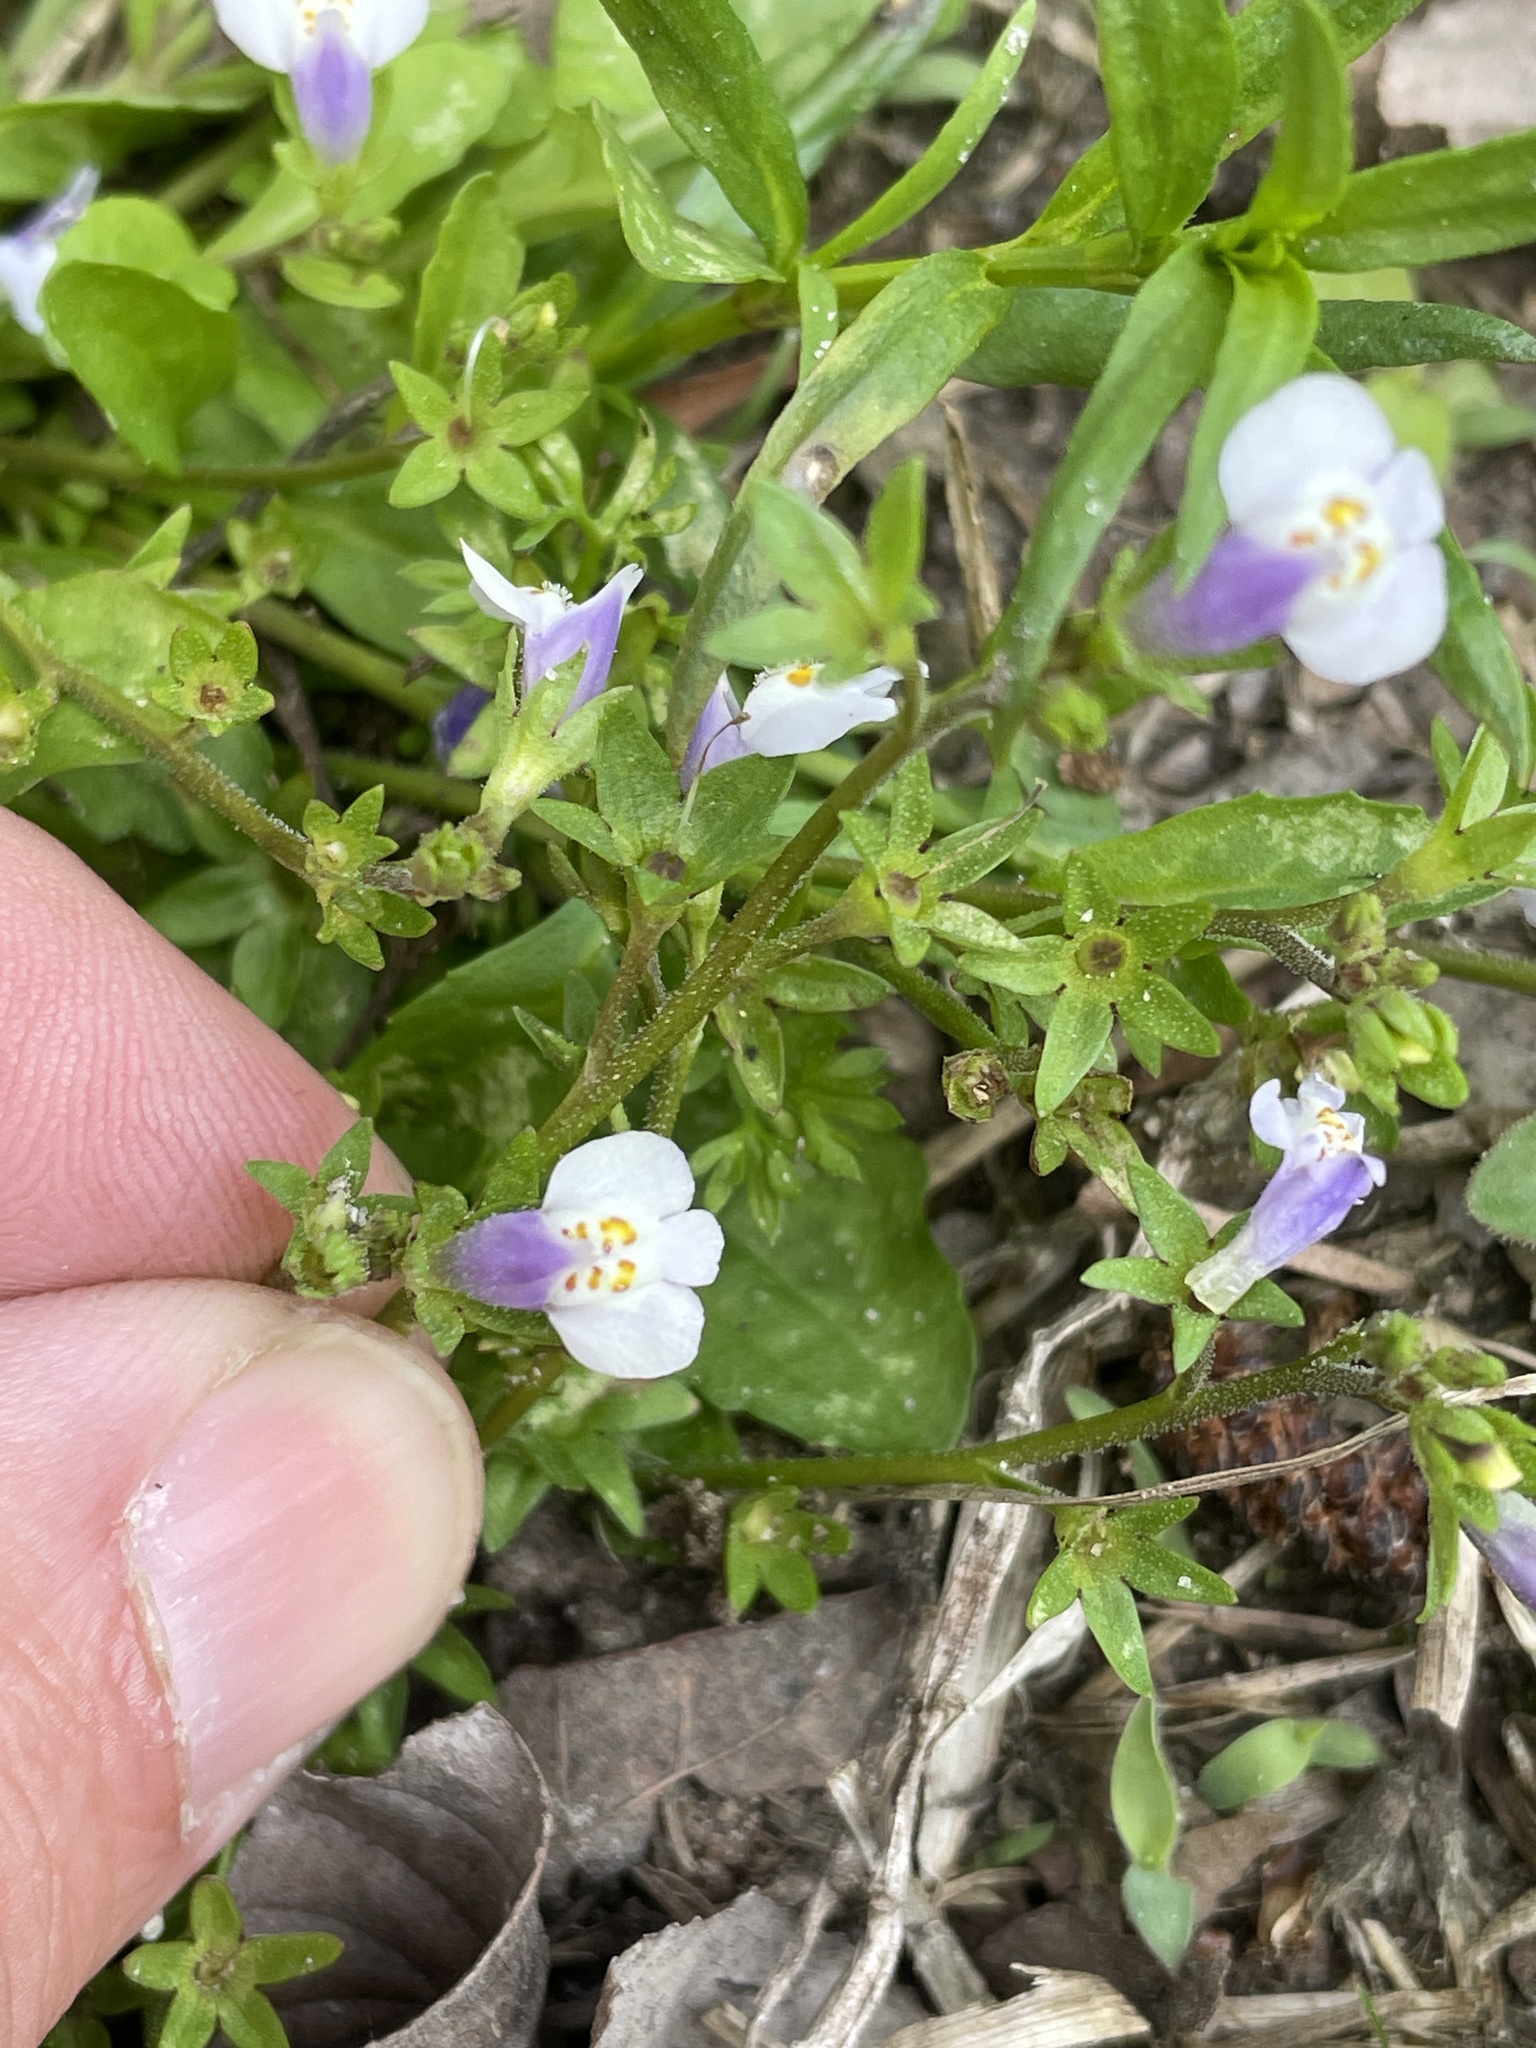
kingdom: Plantae
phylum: Tracheophyta
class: Magnoliopsida
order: Lamiales
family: Mazaceae
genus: Mazus
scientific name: Mazus pumilus
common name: Japanese mazus
